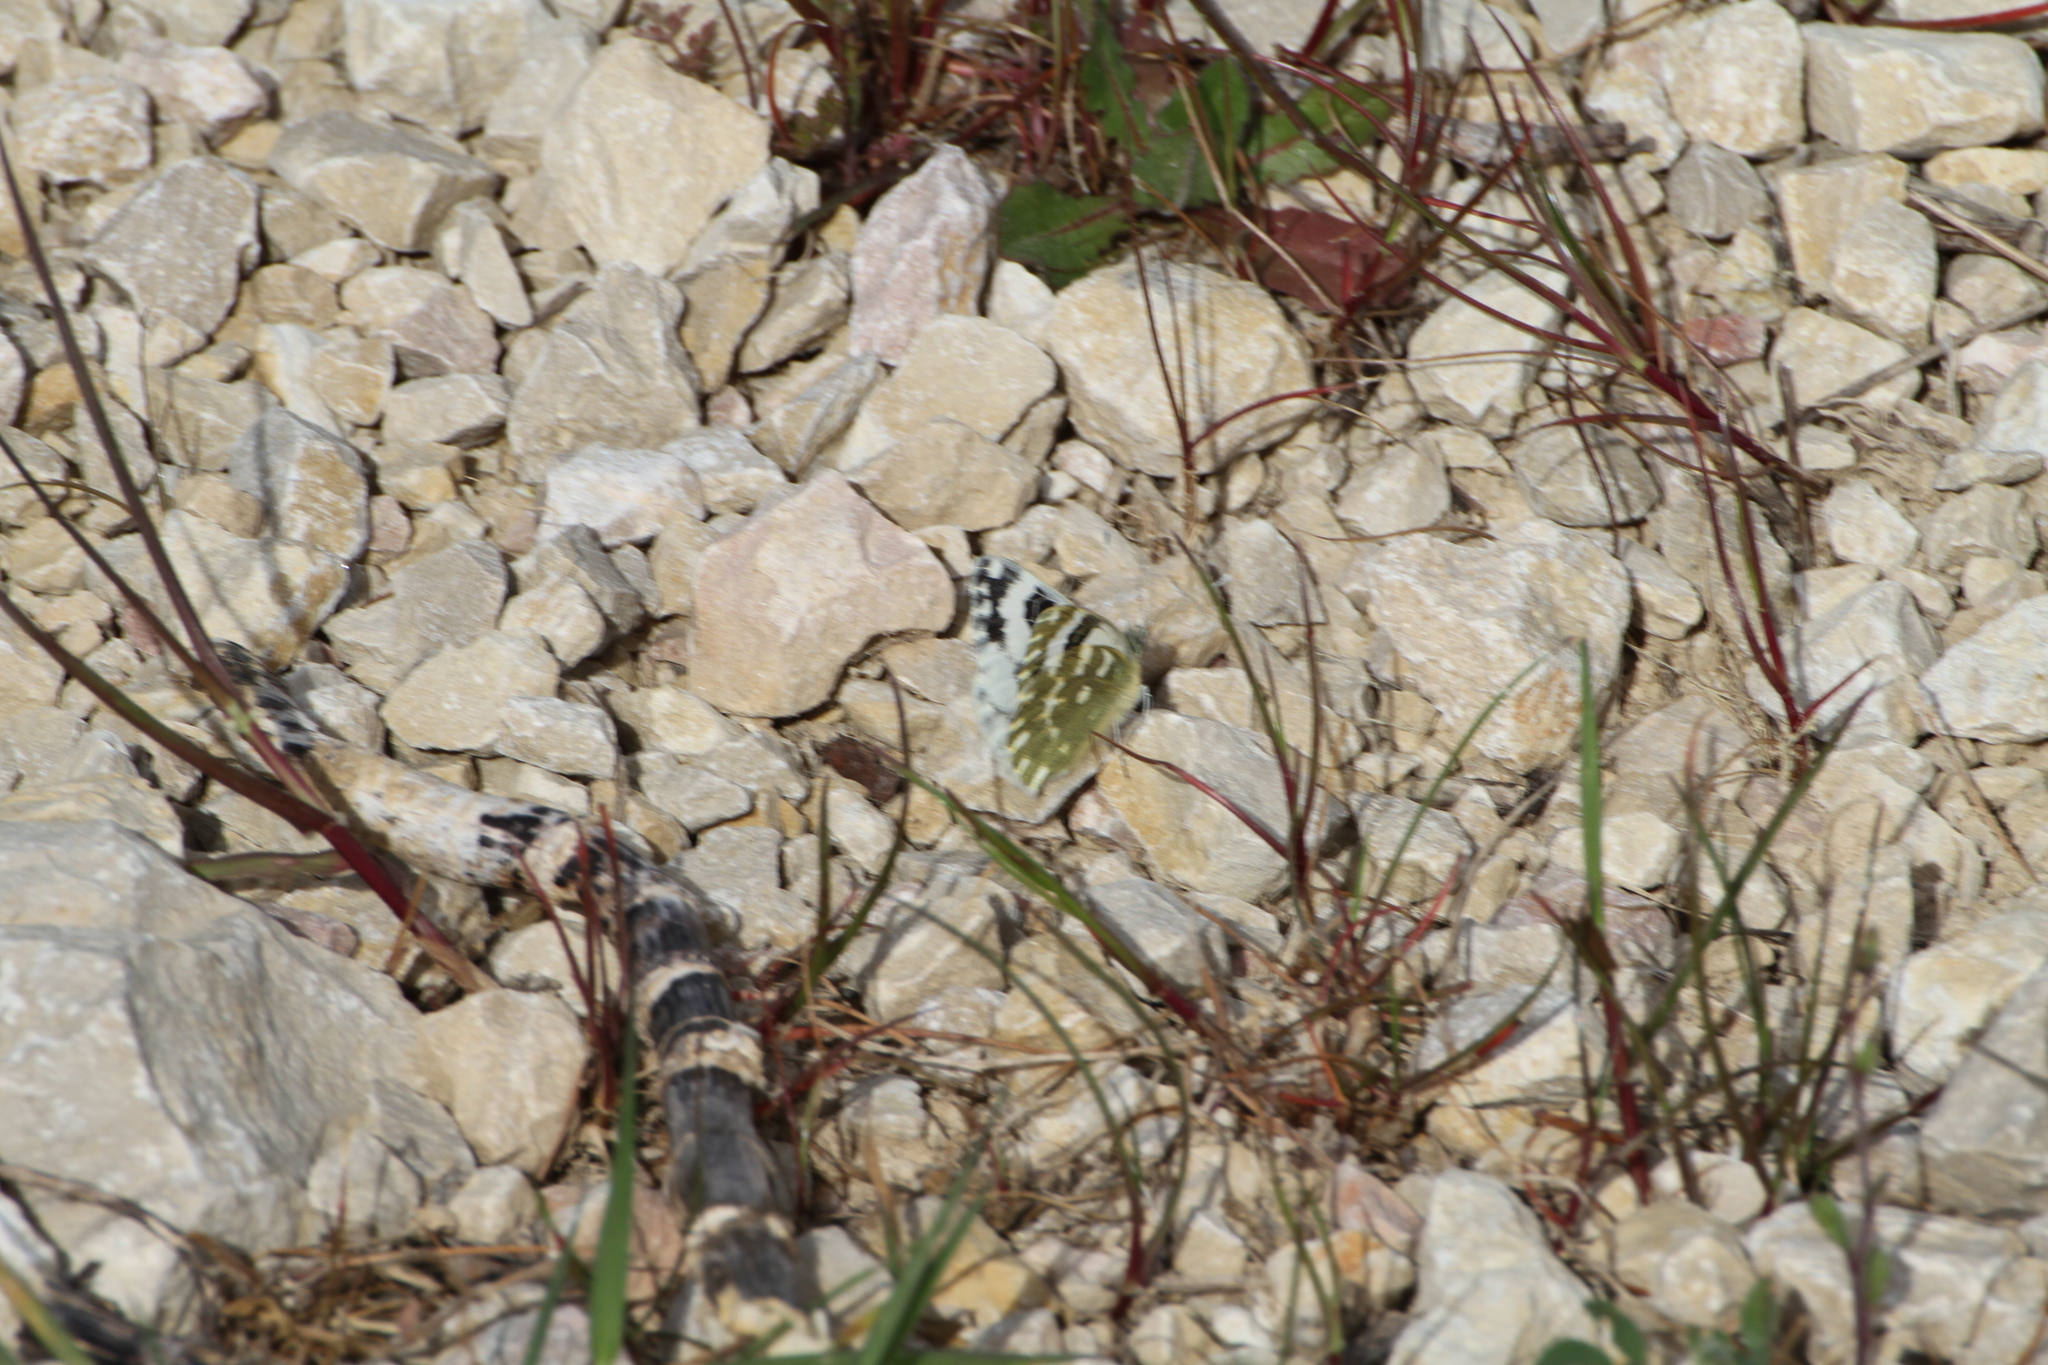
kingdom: Animalia
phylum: Arthropoda
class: Insecta
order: Lepidoptera
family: Pieridae
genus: Pontia
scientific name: Pontia daplidice
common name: Bath white
